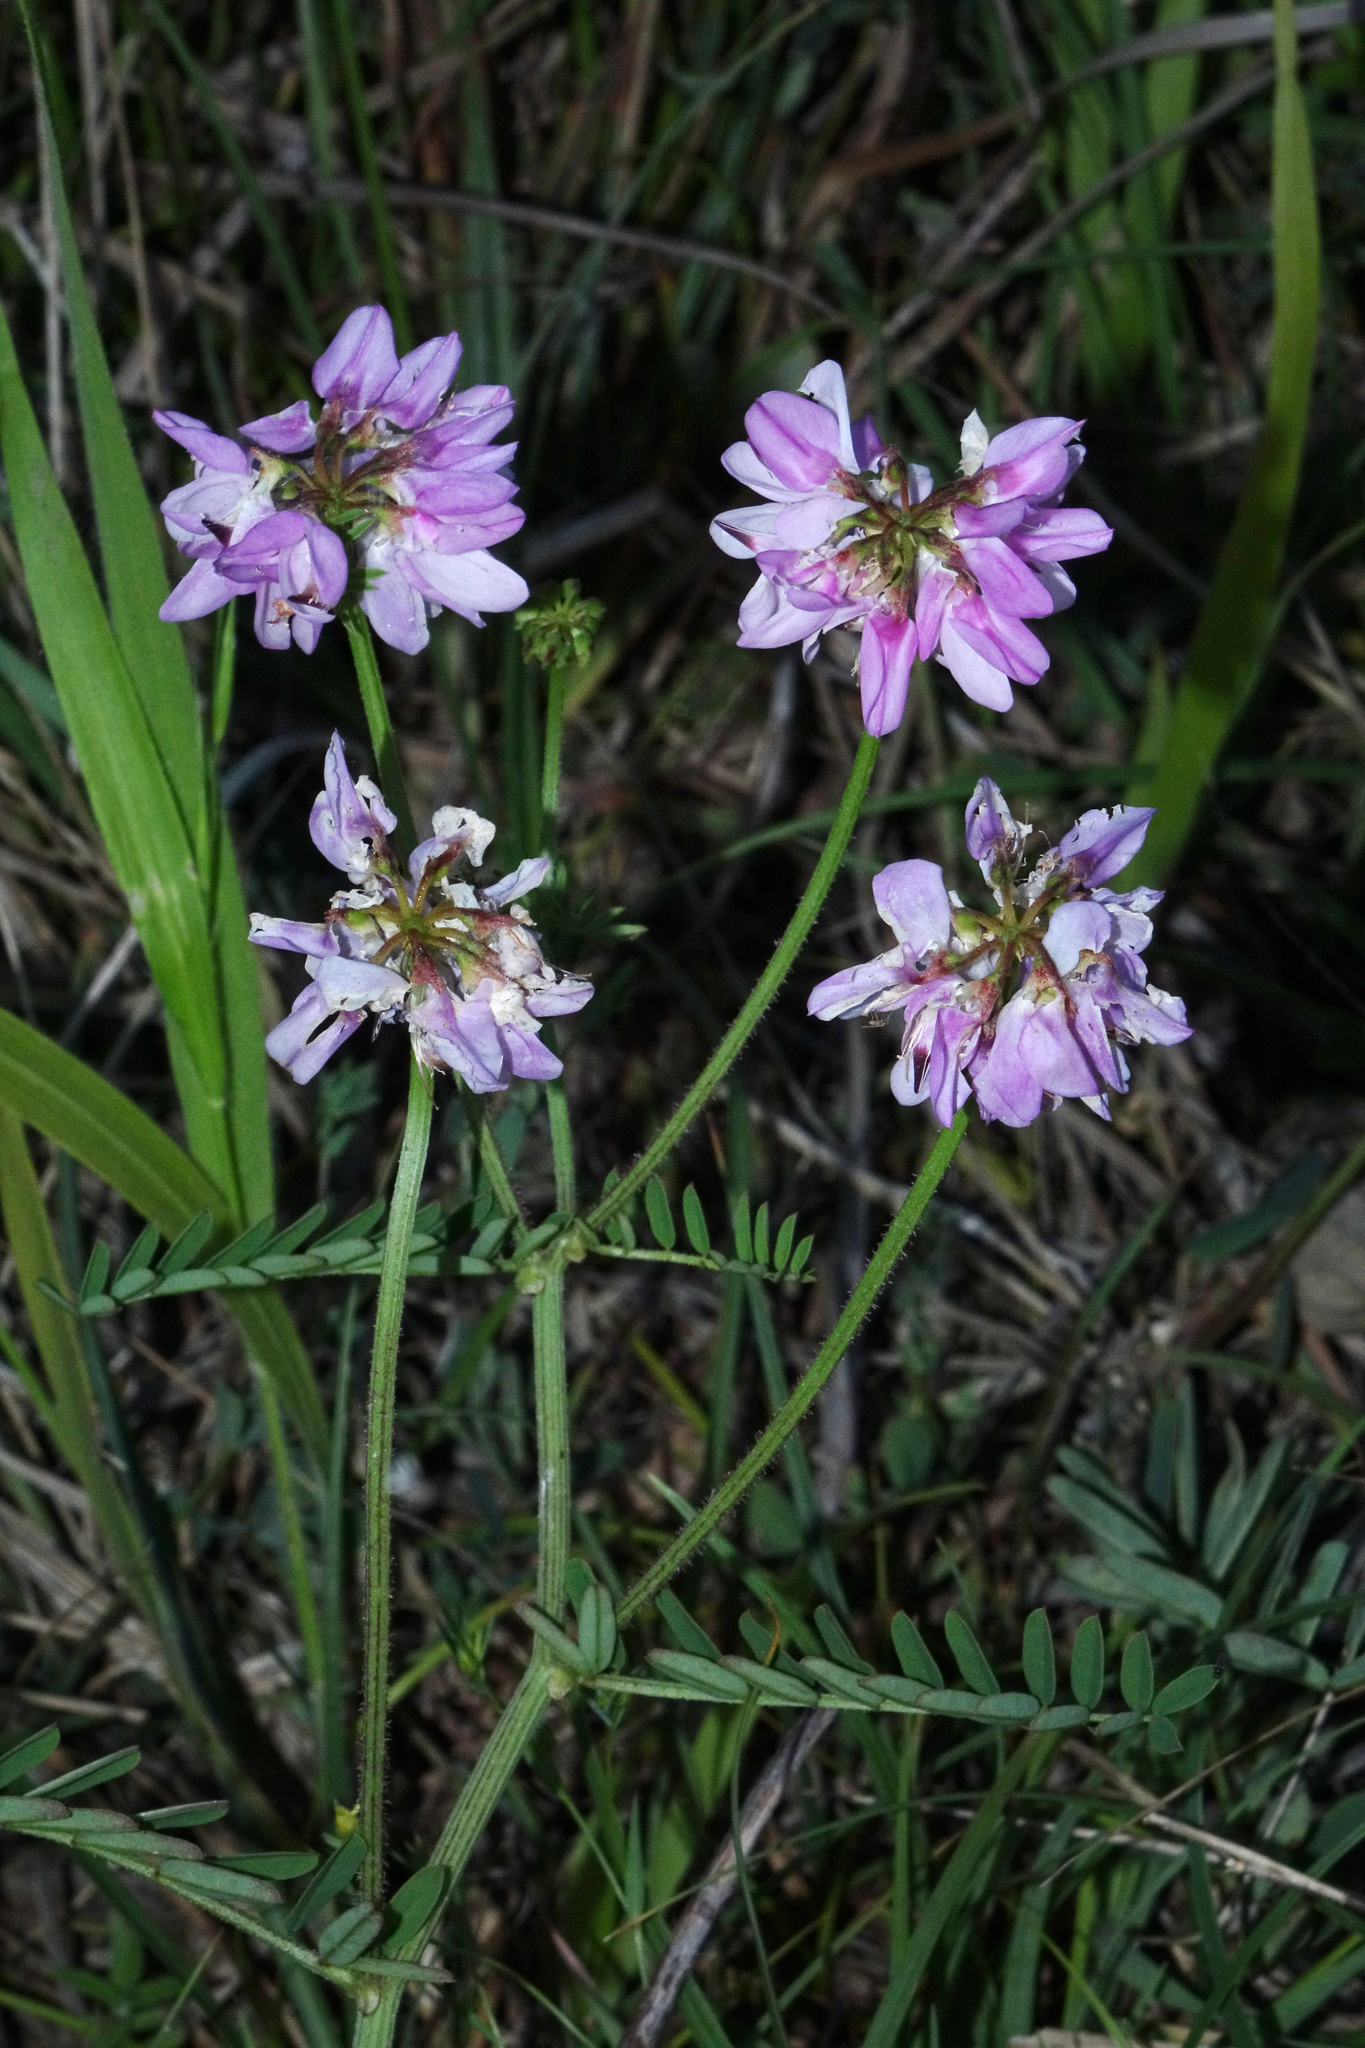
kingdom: Plantae
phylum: Tracheophyta
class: Magnoliopsida
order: Fabales
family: Fabaceae
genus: Coronilla
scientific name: Coronilla varia
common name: Crownvetch
